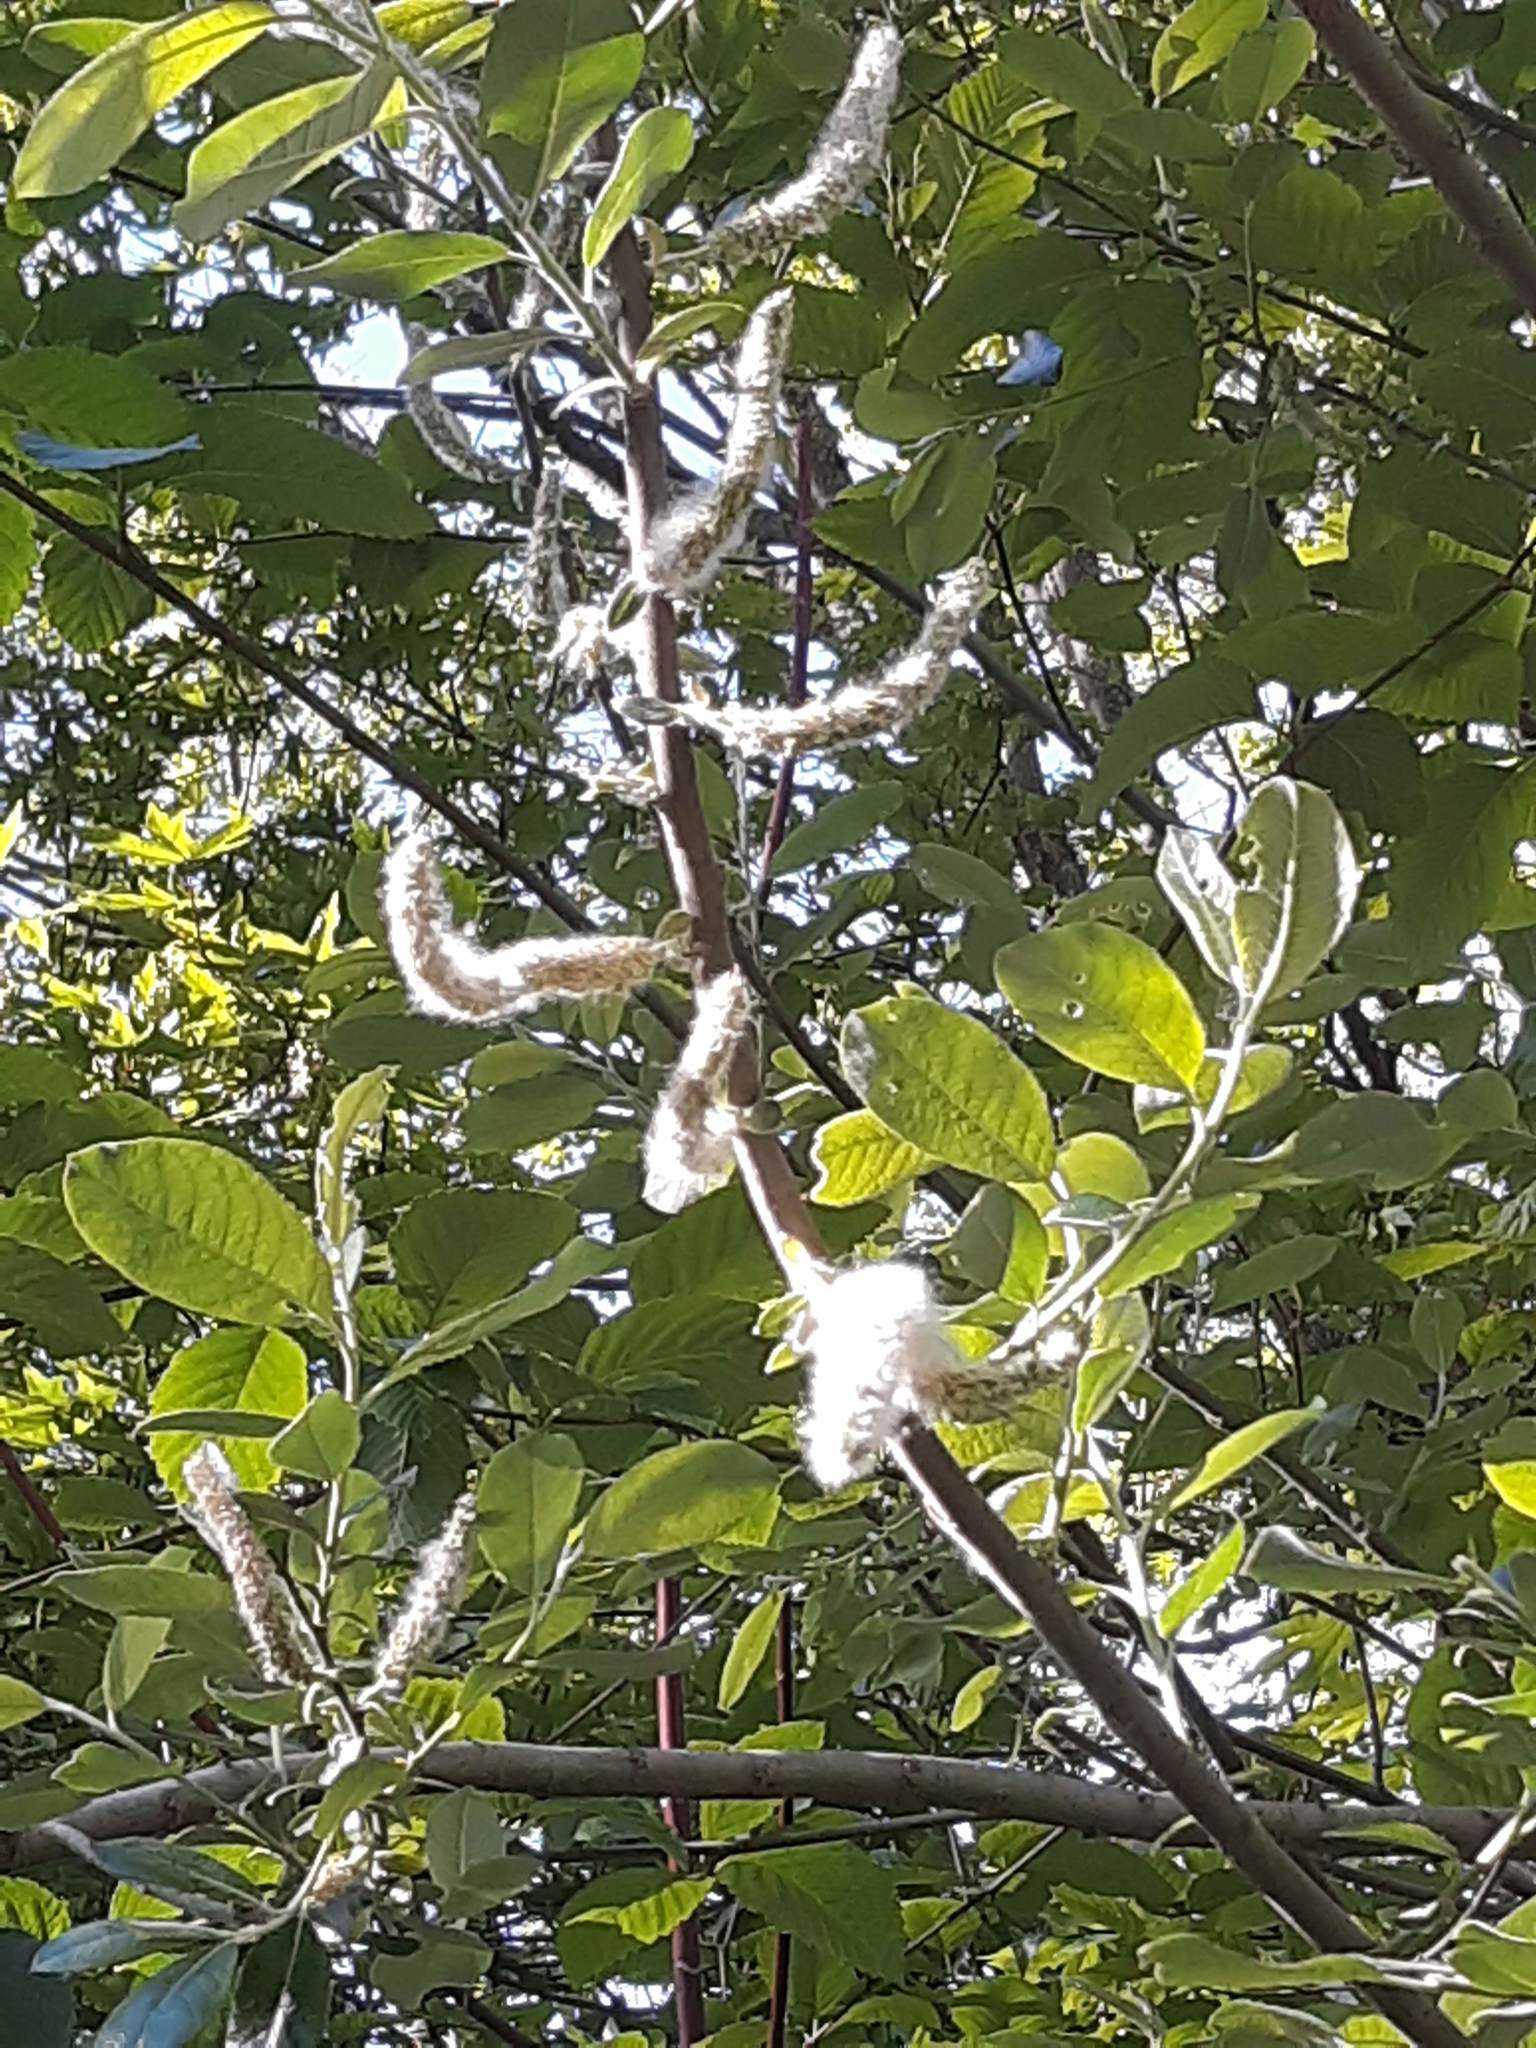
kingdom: Plantae
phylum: Tracheophyta
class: Magnoliopsida
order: Malpighiales
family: Salicaceae
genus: Salix
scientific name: Salix sitchensis
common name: Sitka willow
